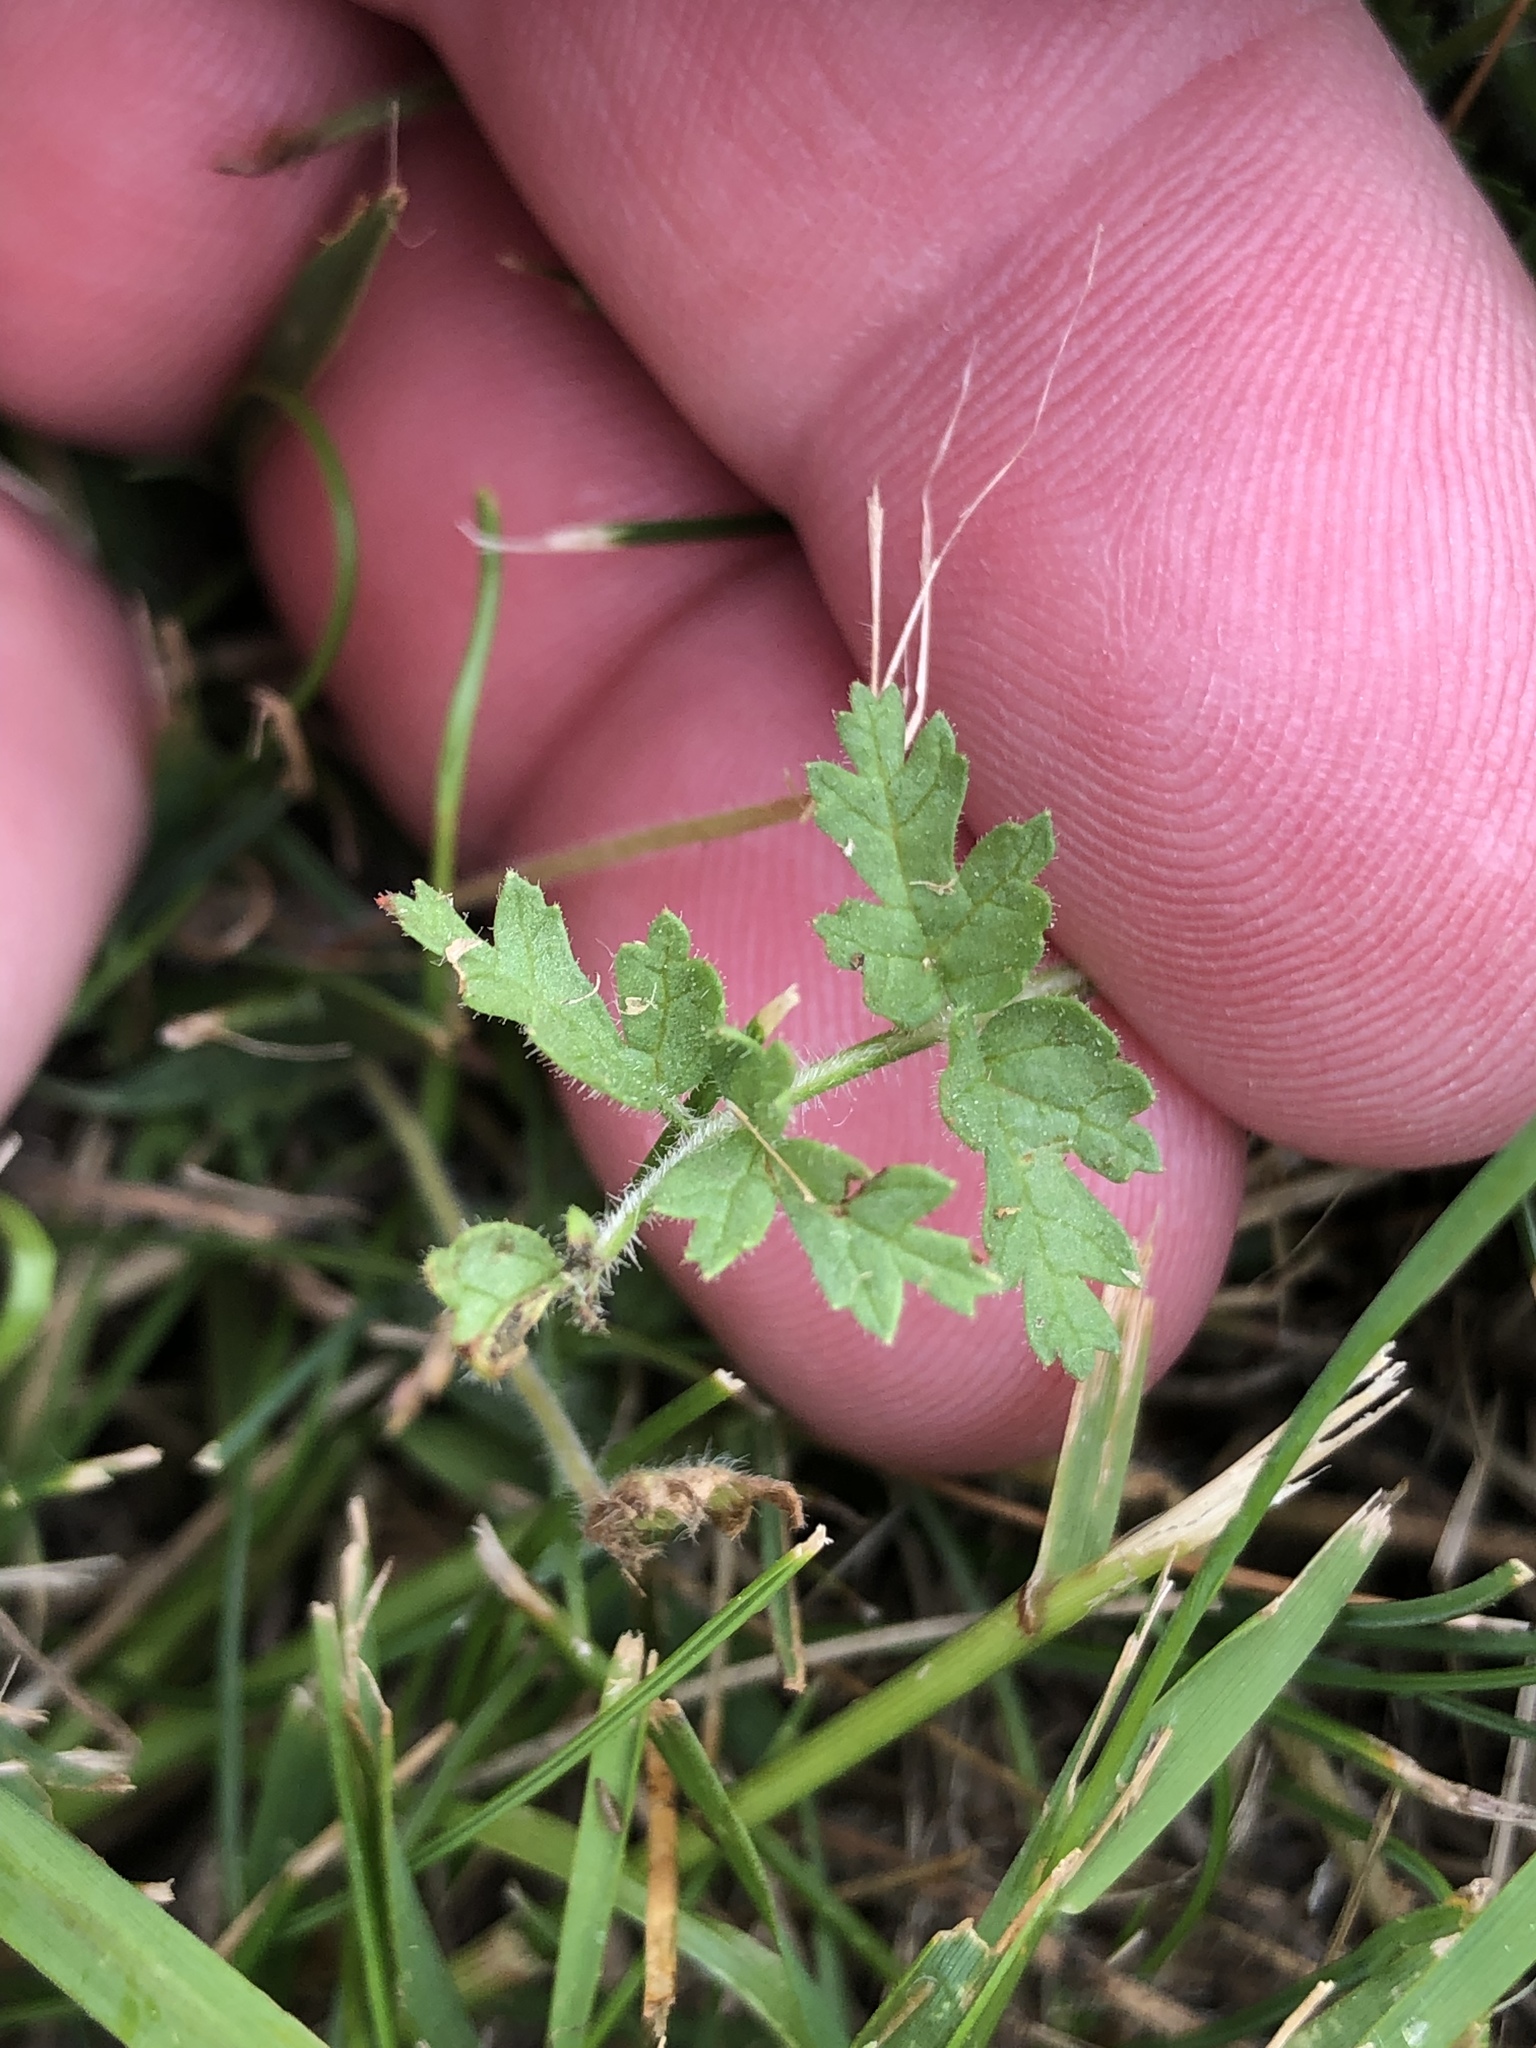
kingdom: Plantae
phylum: Tracheophyta
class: Magnoliopsida
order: Geraniales
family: Geraniaceae
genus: Erodium
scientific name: Erodium moschatum
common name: Musk stork's-bill
